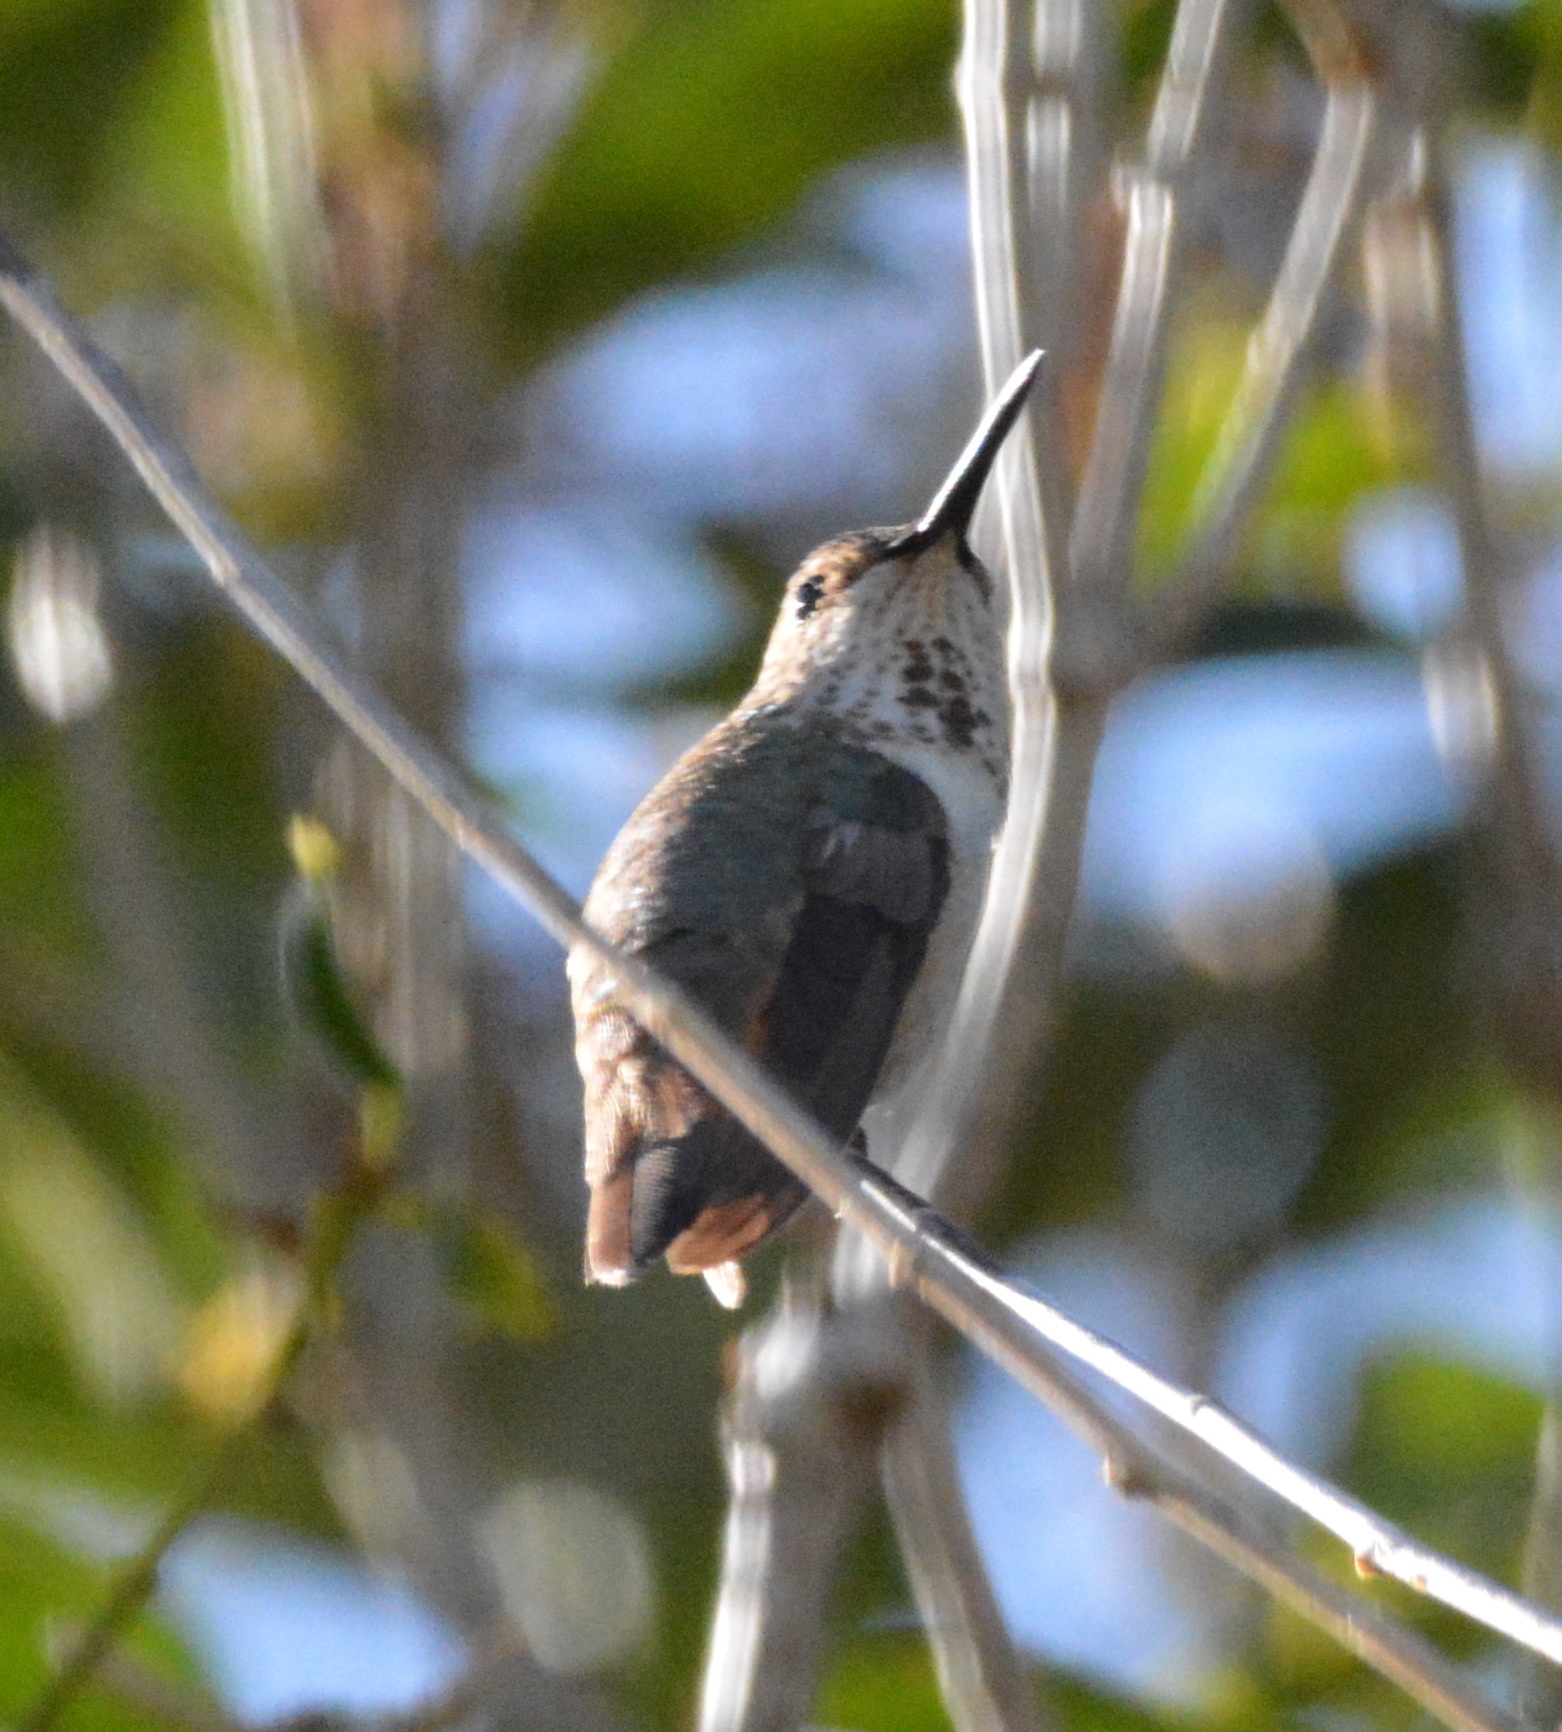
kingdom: Animalia
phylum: Chordata
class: Aves
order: Apodiformes
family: Trochilidae
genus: Selasphorus
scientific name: Selasphorus rufus
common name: Rufous hummingbird
